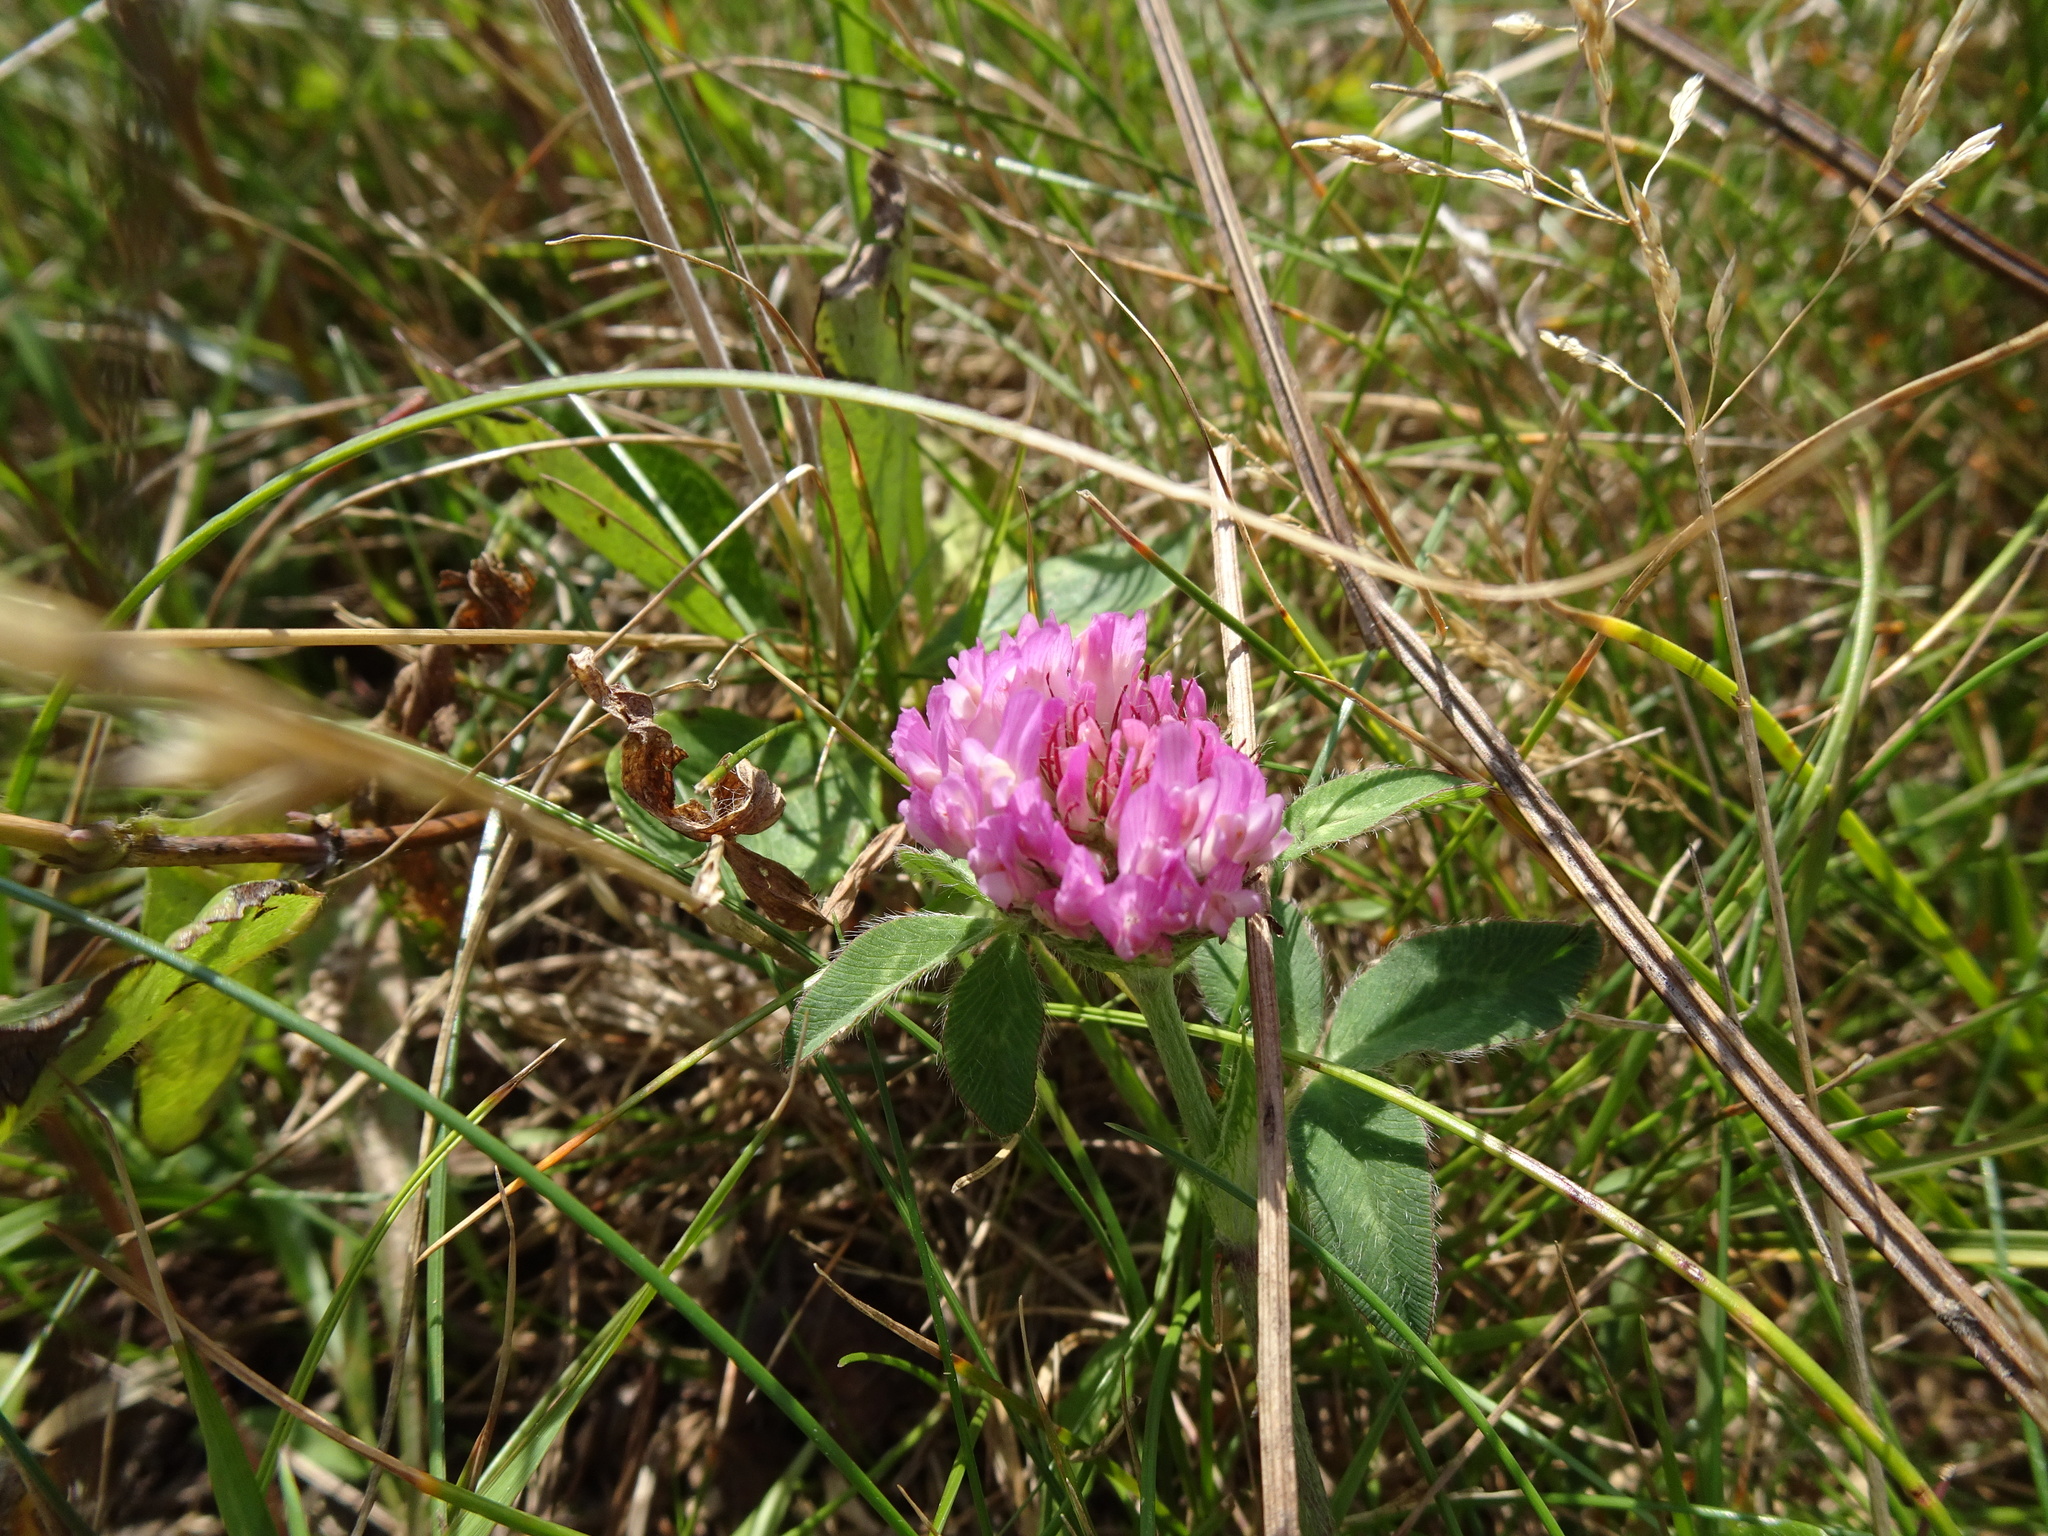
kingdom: Plantae
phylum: Tracheophyta
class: Magnoliopsida
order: Fabales
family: Fabaceae
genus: Trifolium
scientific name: Trifolium pratense
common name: Red clover
